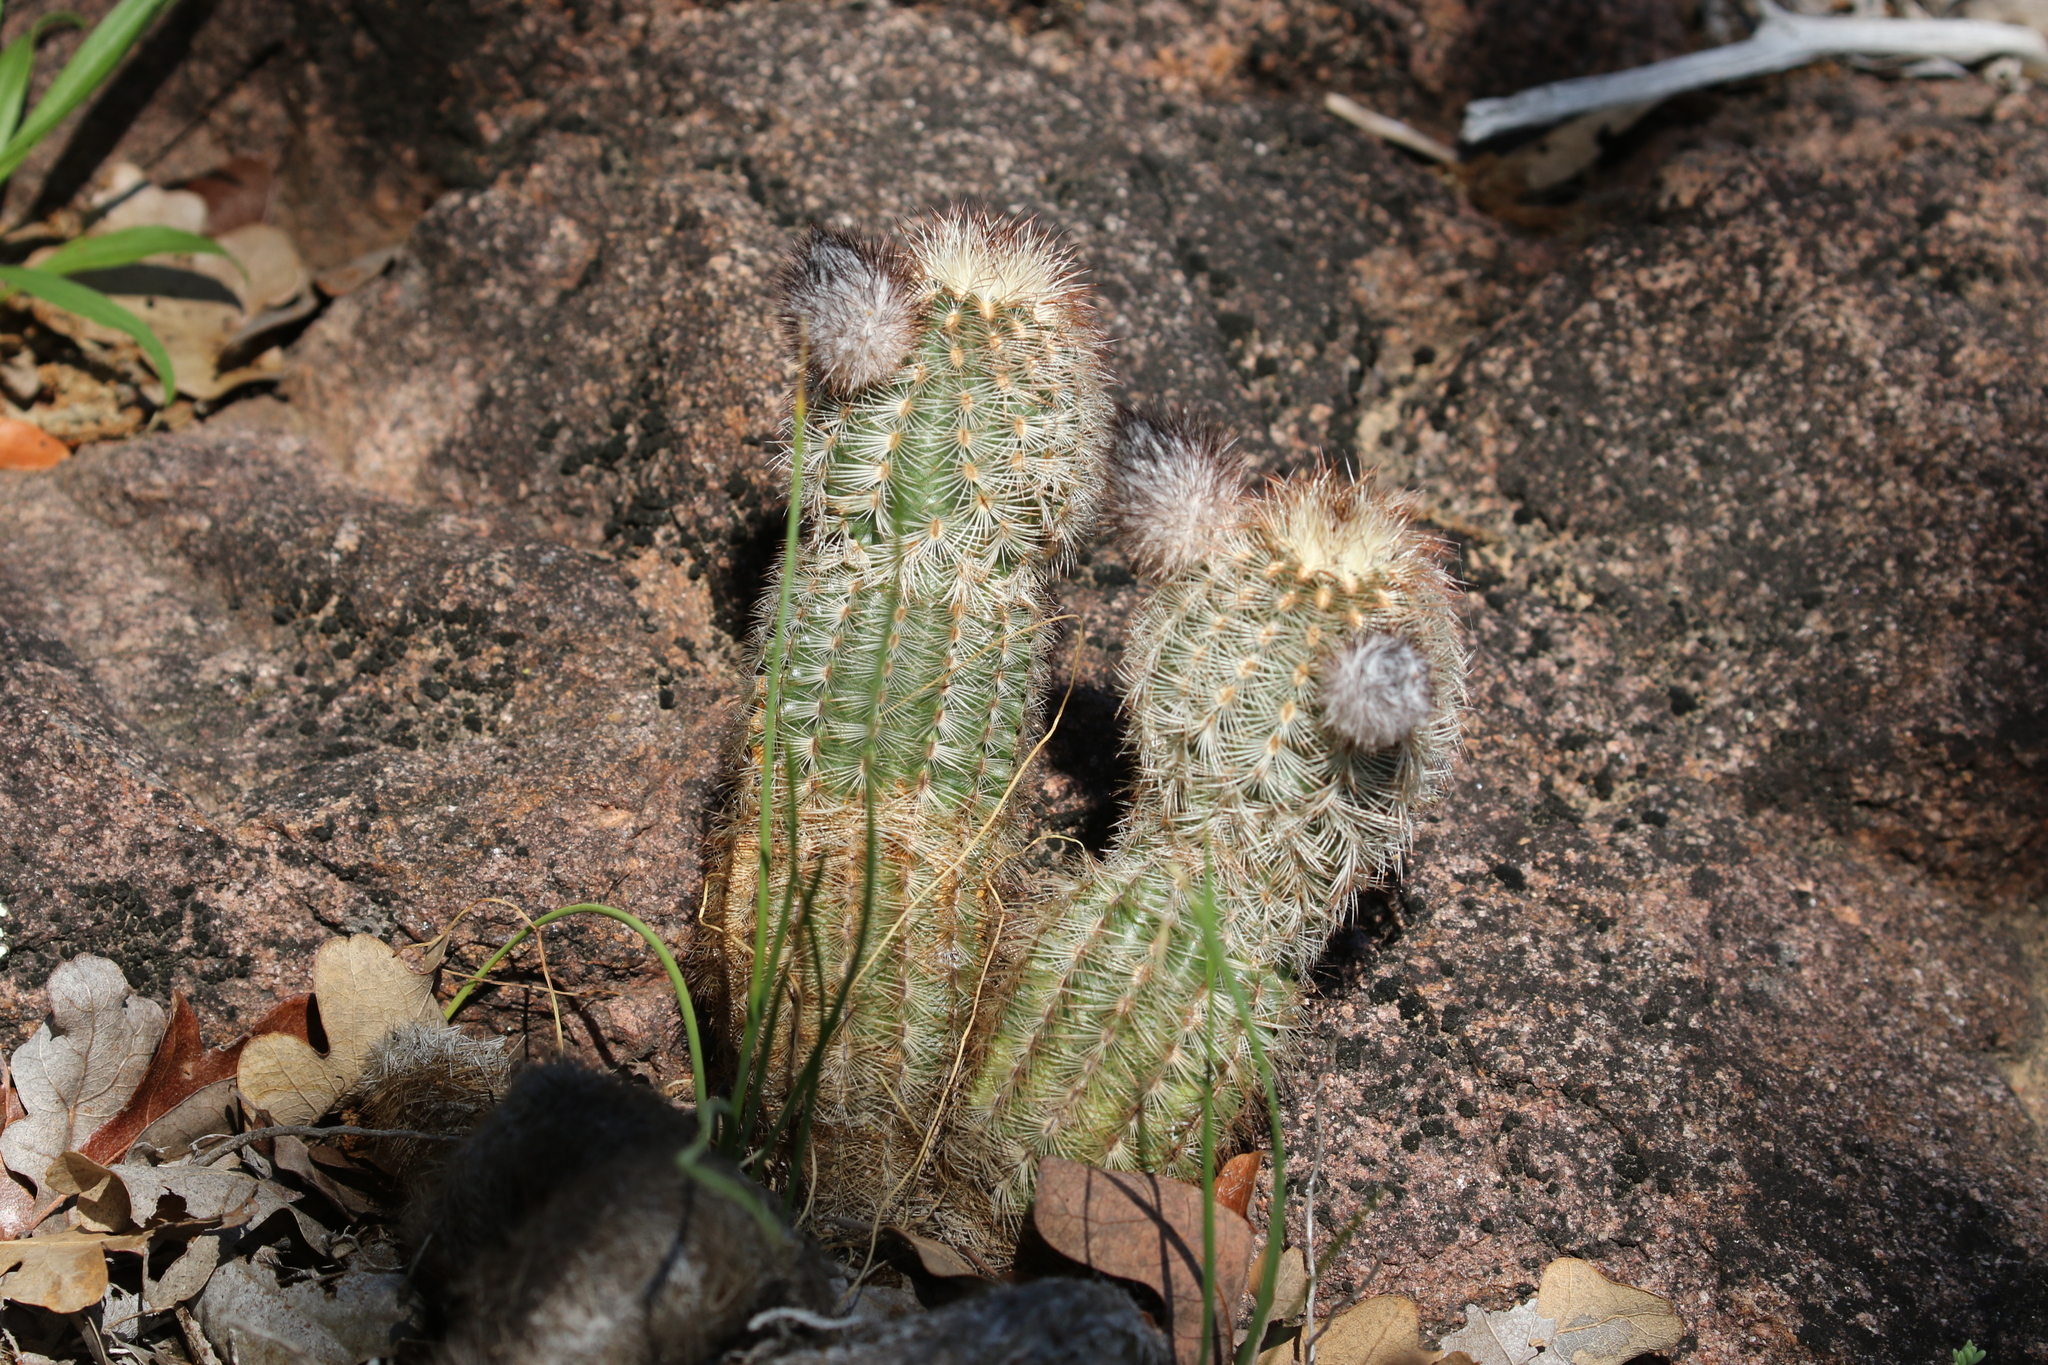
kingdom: Plantae
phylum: Tracheophyta
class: Magnoliopsida
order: Caryophyllales
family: Cactaceae
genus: Echinocereus
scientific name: Echinocereus reichenbachii
